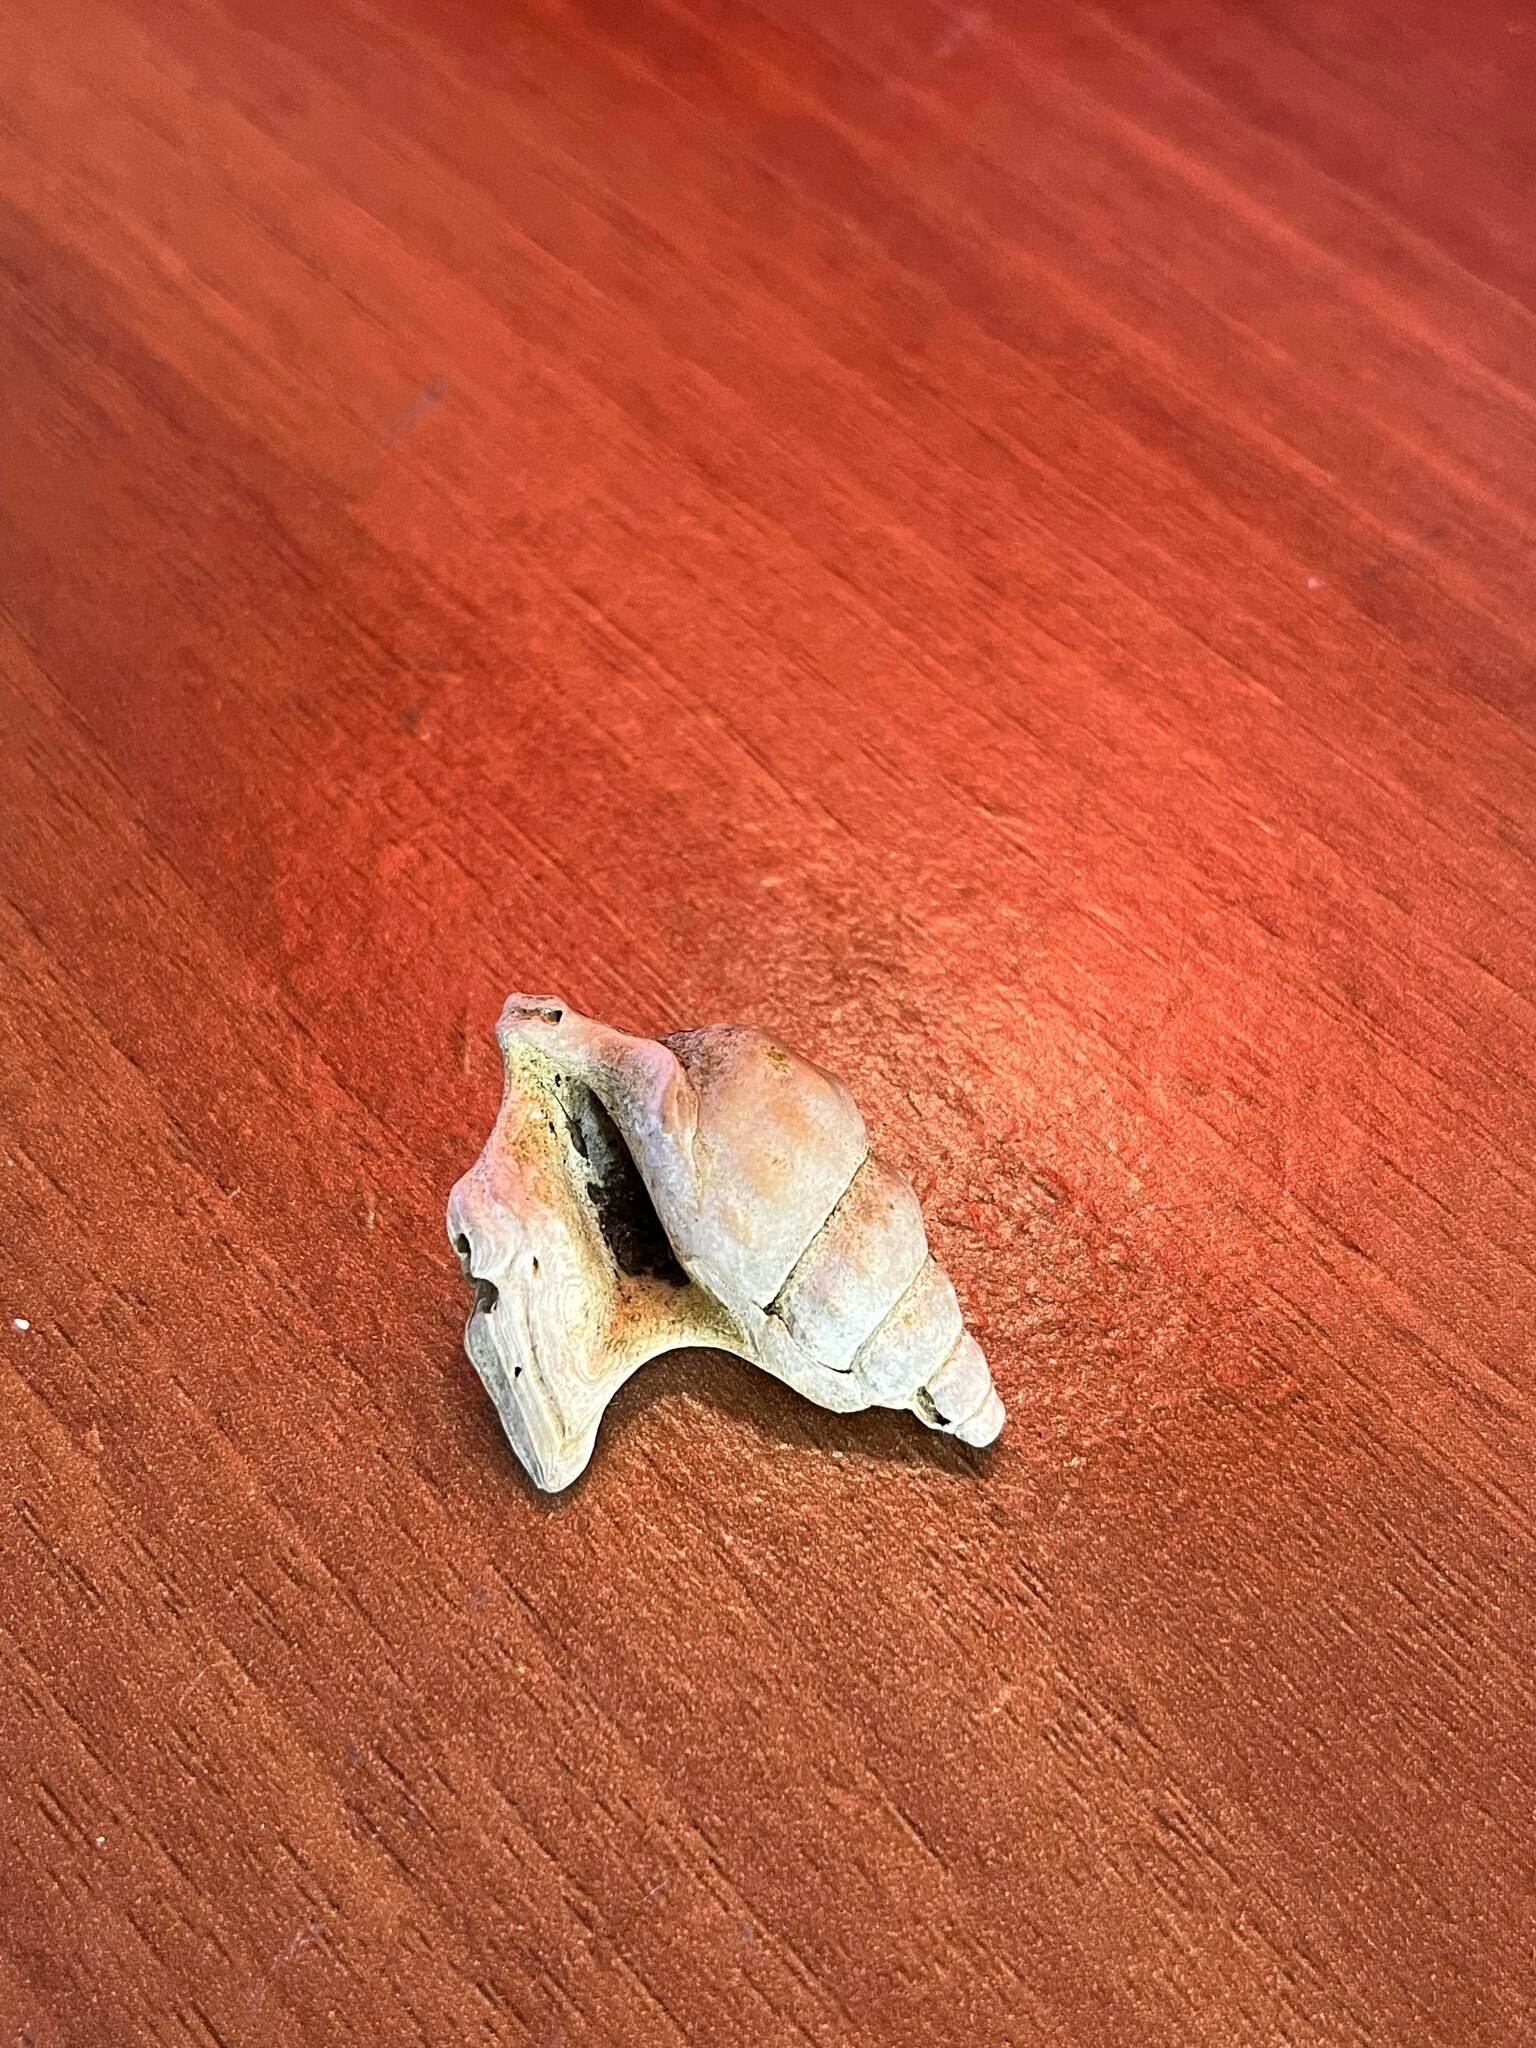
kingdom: Animalia
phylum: Mollusca
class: Gastropoda
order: Littorinimorpha
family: Aporrhaidae
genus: Aporrhais
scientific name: Aporrhais pespelecani
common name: Common pelican’s foot
